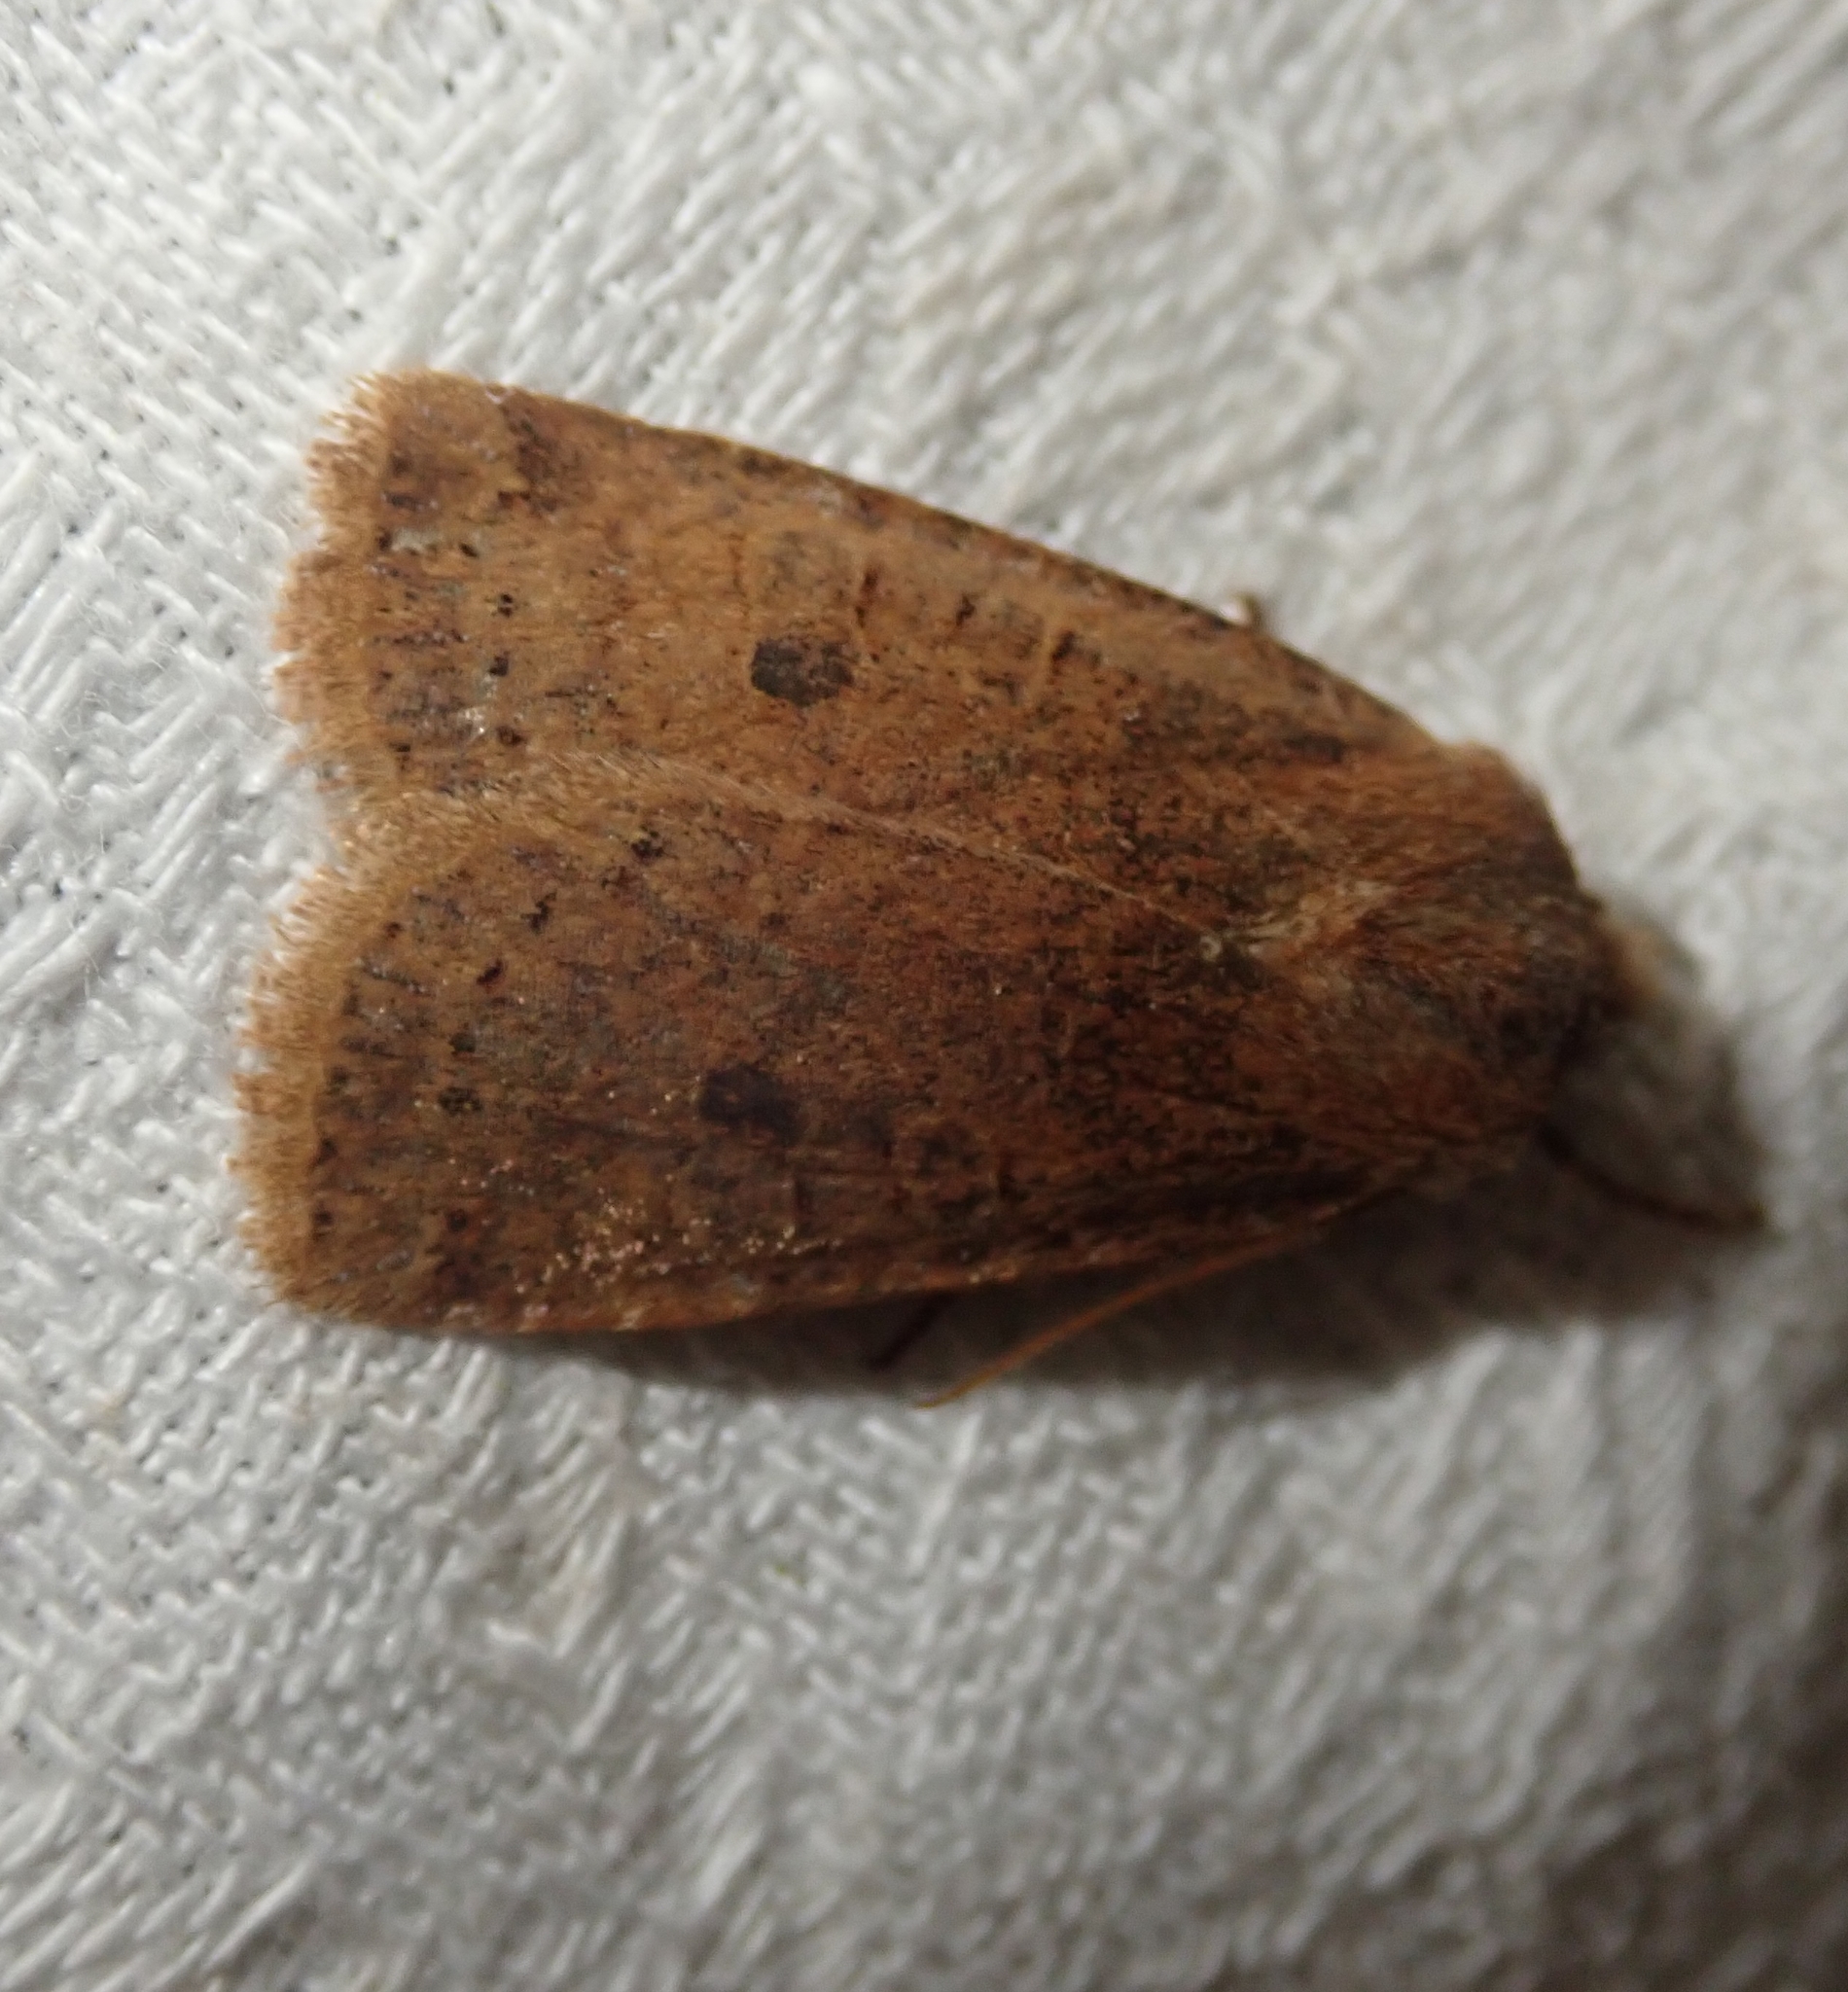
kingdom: Animalia
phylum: Arthropoda
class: Insecta
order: Lepidoptera
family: Noctuidae
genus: Conistra
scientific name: Conistra vaccinii
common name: Chestnut
